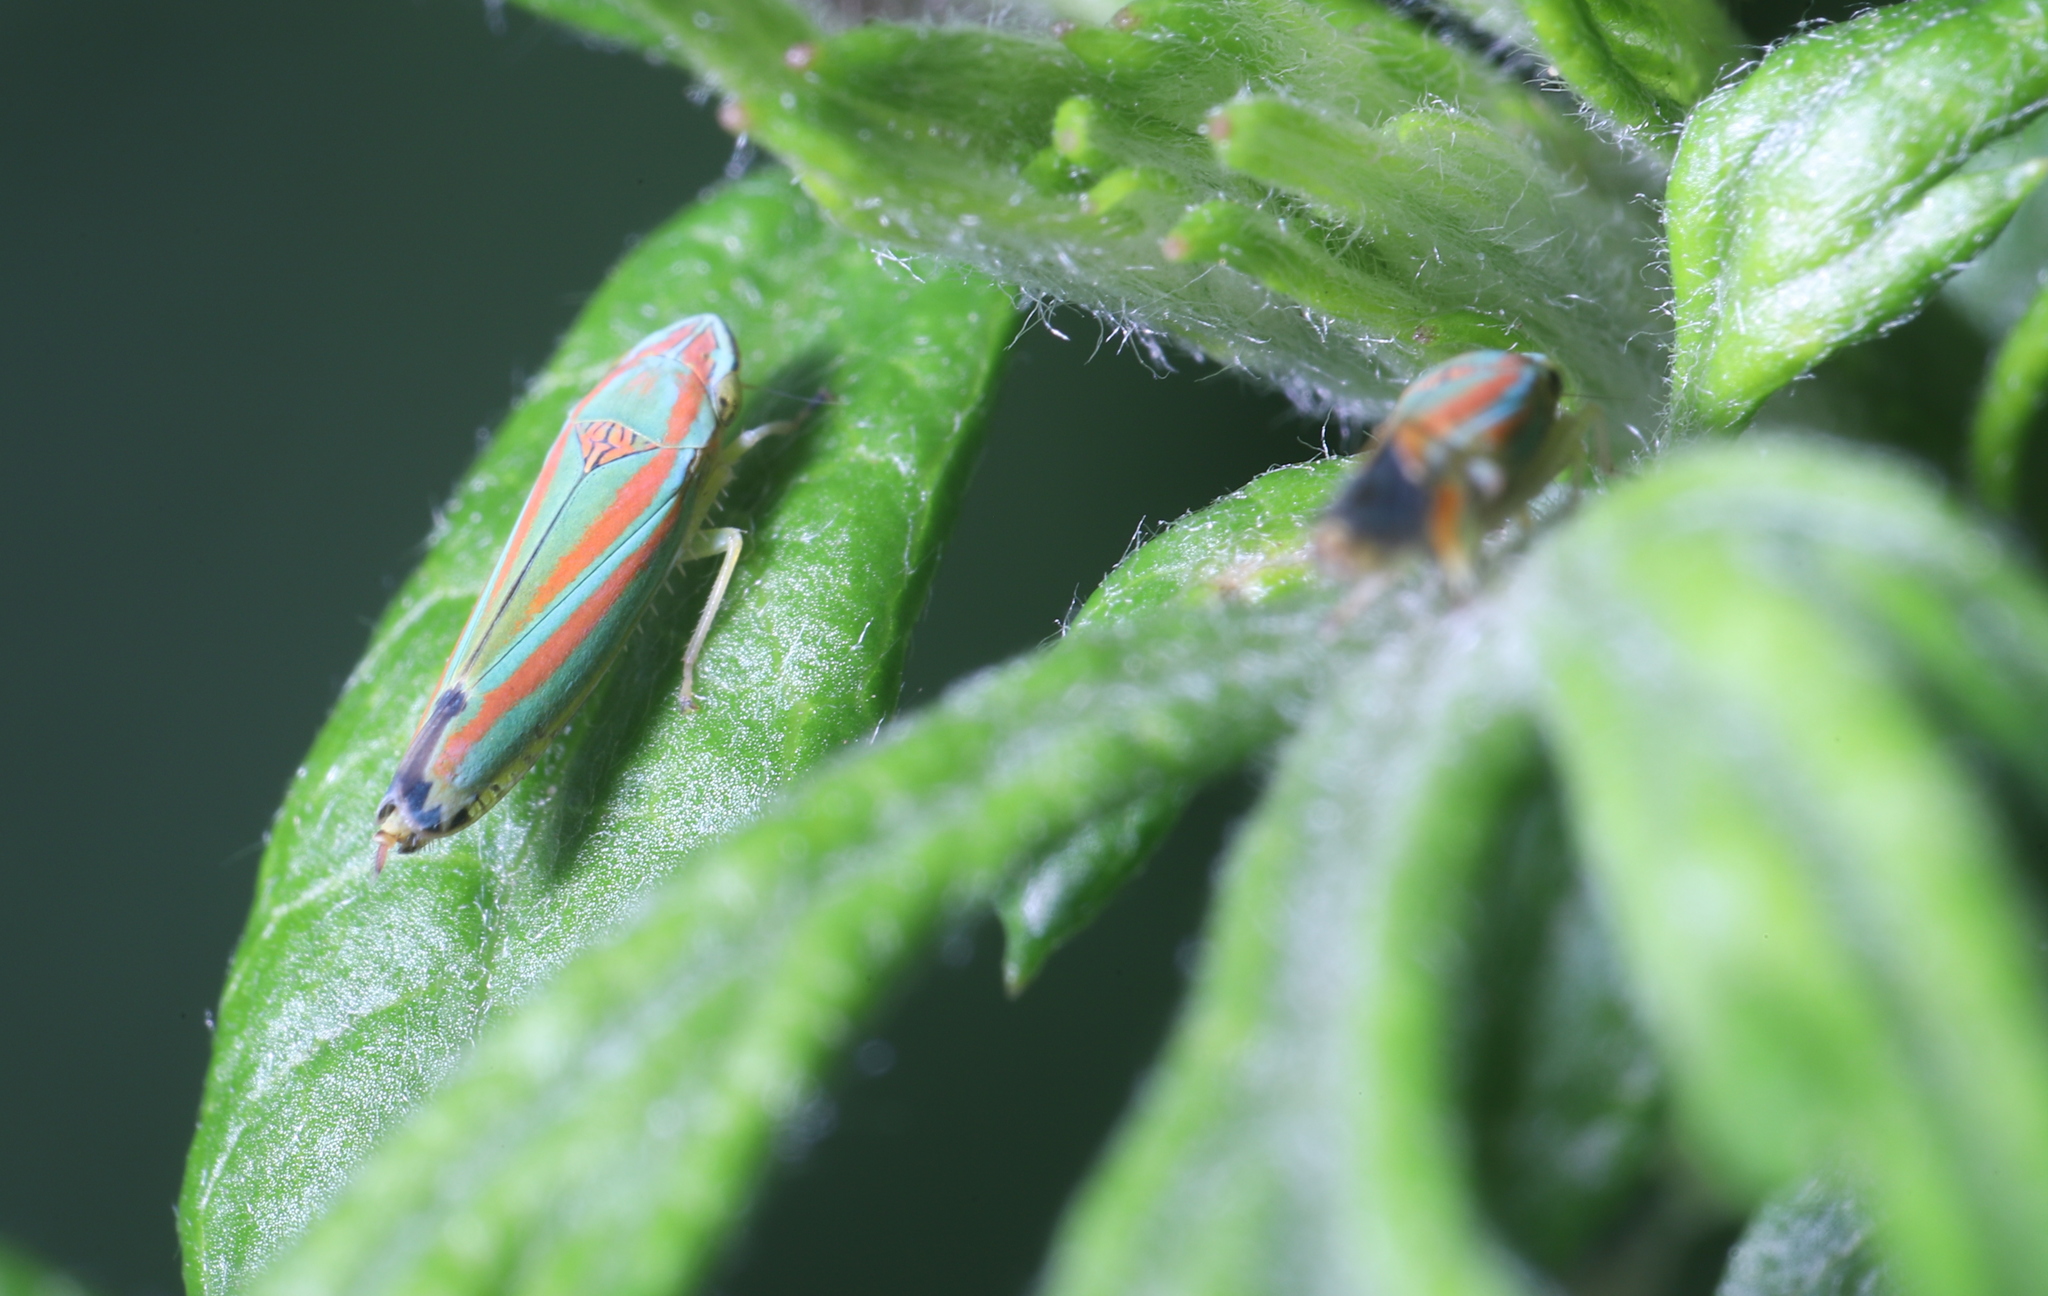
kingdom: Animalia
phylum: Arthropoda
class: Insecta
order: Hemiptera
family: Cicadellidae
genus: Graphocephala
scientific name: Graphocephala versuta
